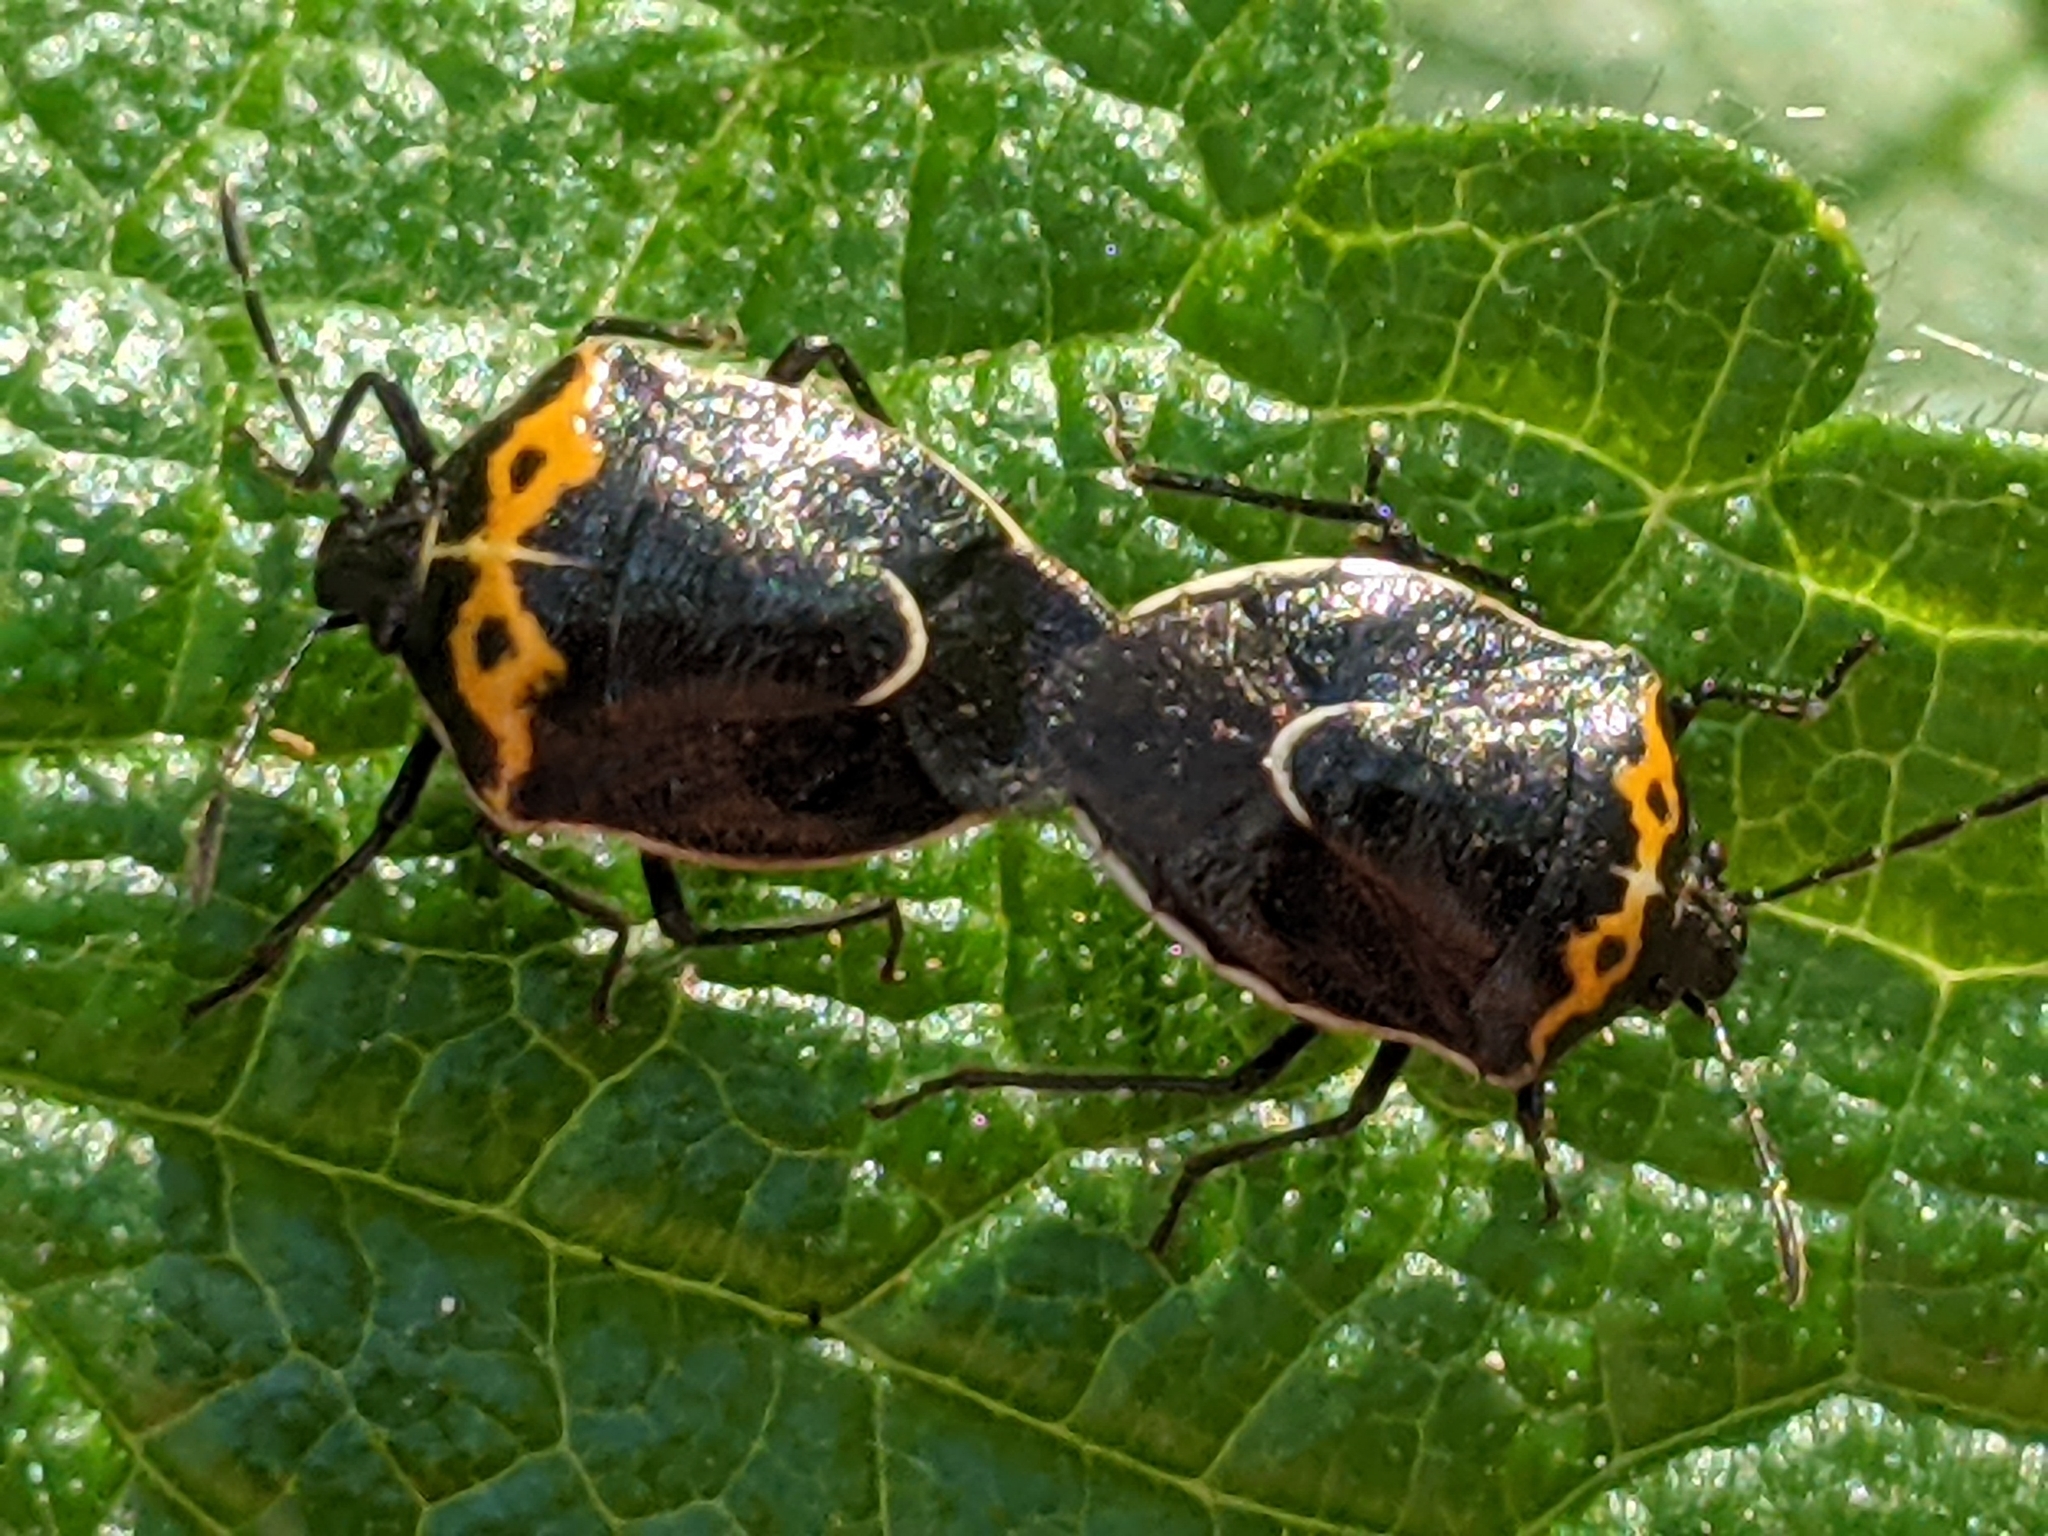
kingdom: Animalia
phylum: Arthropoda
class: Insecta
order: Hemiptera
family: Pentatomidae
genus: Cosmopepla
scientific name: Cosmopepla conspicillaris
